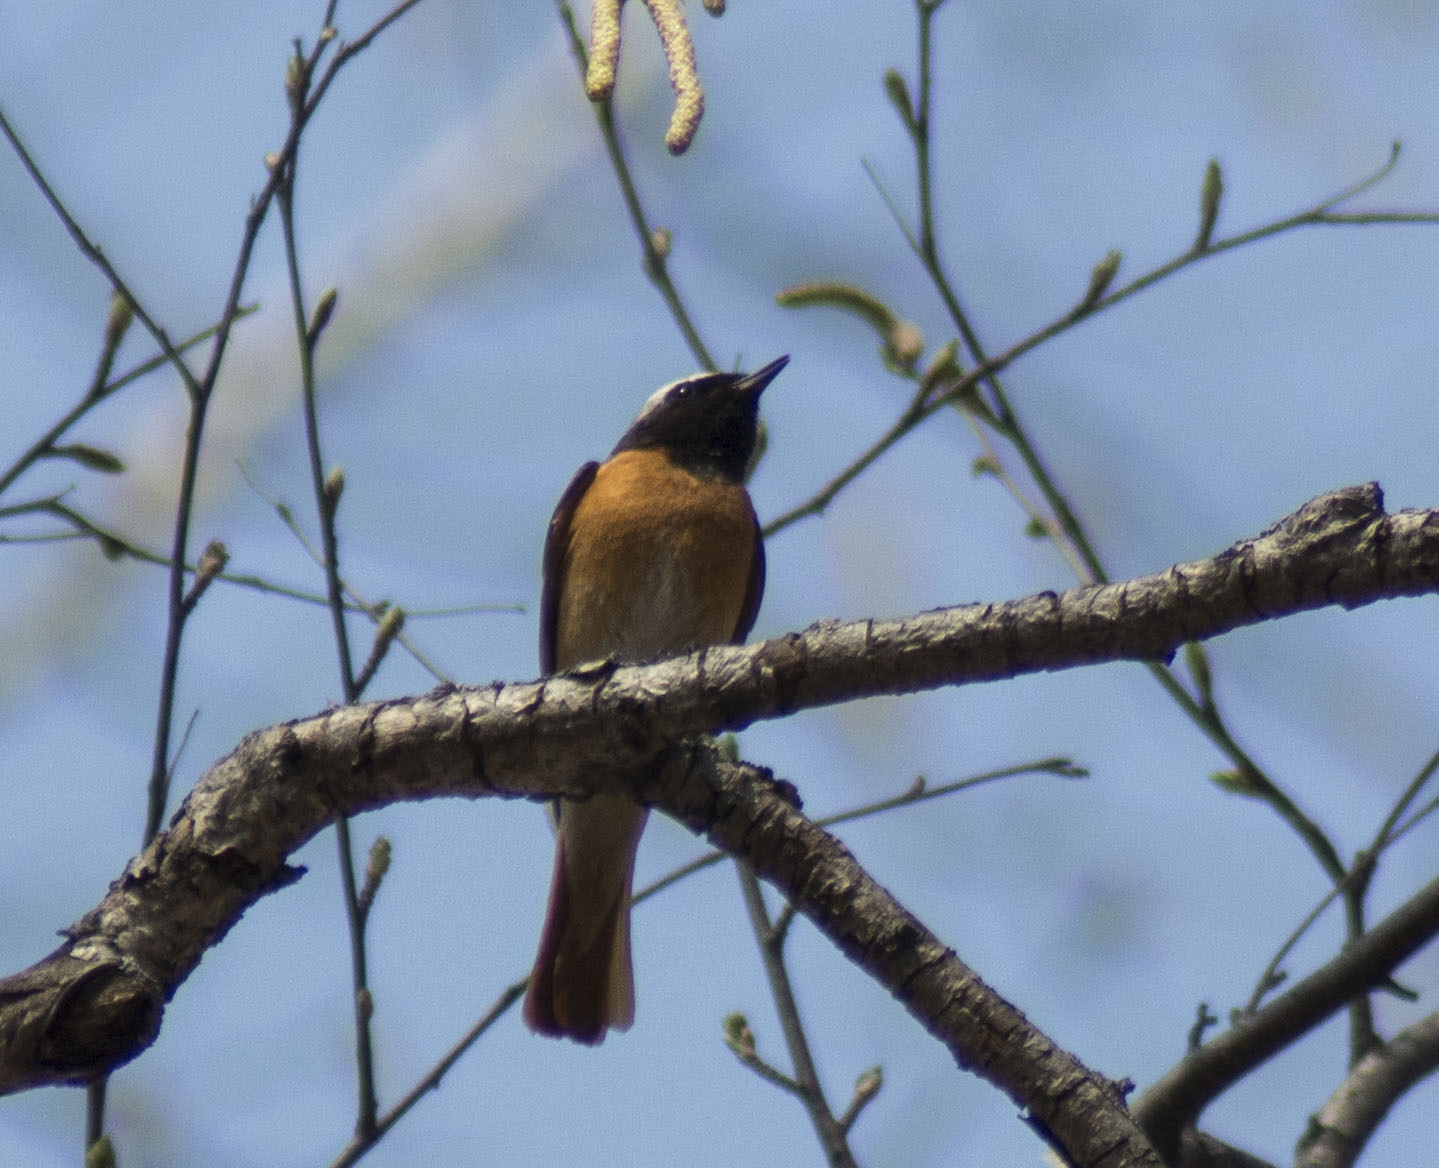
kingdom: Animalia
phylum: Chordata
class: Aves
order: Passeriformes
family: Muscicapidae
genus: Phoenicurus
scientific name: Phoenicurus phoenicurus
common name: Common redstart
